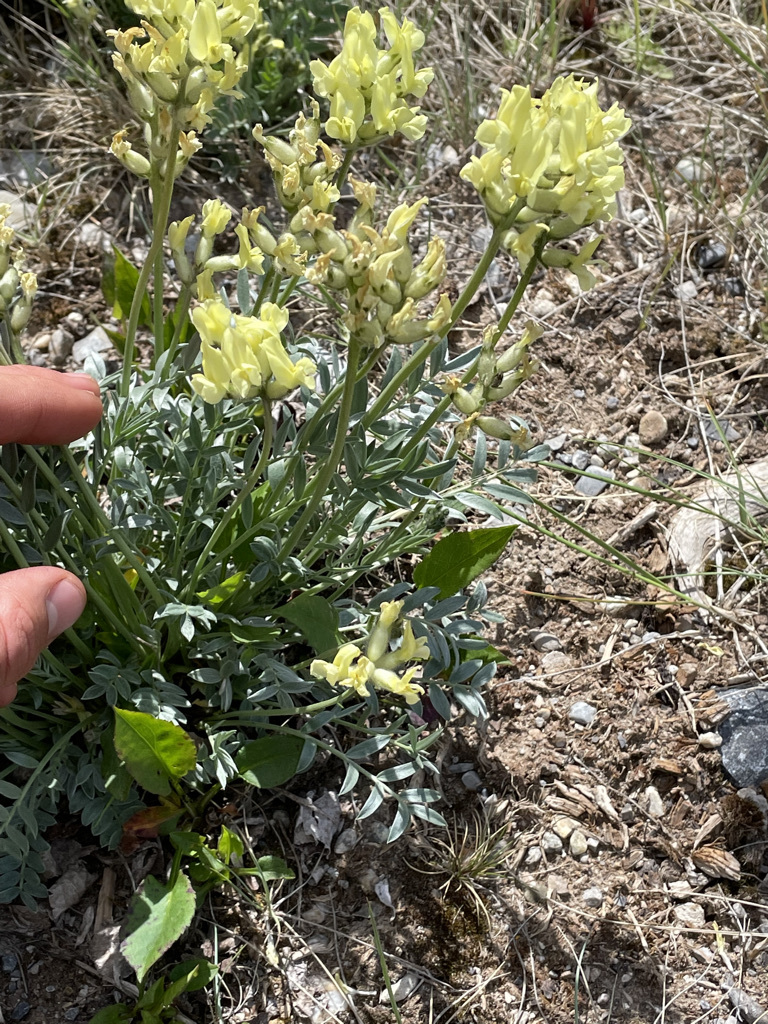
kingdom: Plantae
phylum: Tracheophyta
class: Magnoliopsida
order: Fabales
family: Fabaceae
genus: Oxytropis
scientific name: Oxytropis sericea
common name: Silky locoweed
